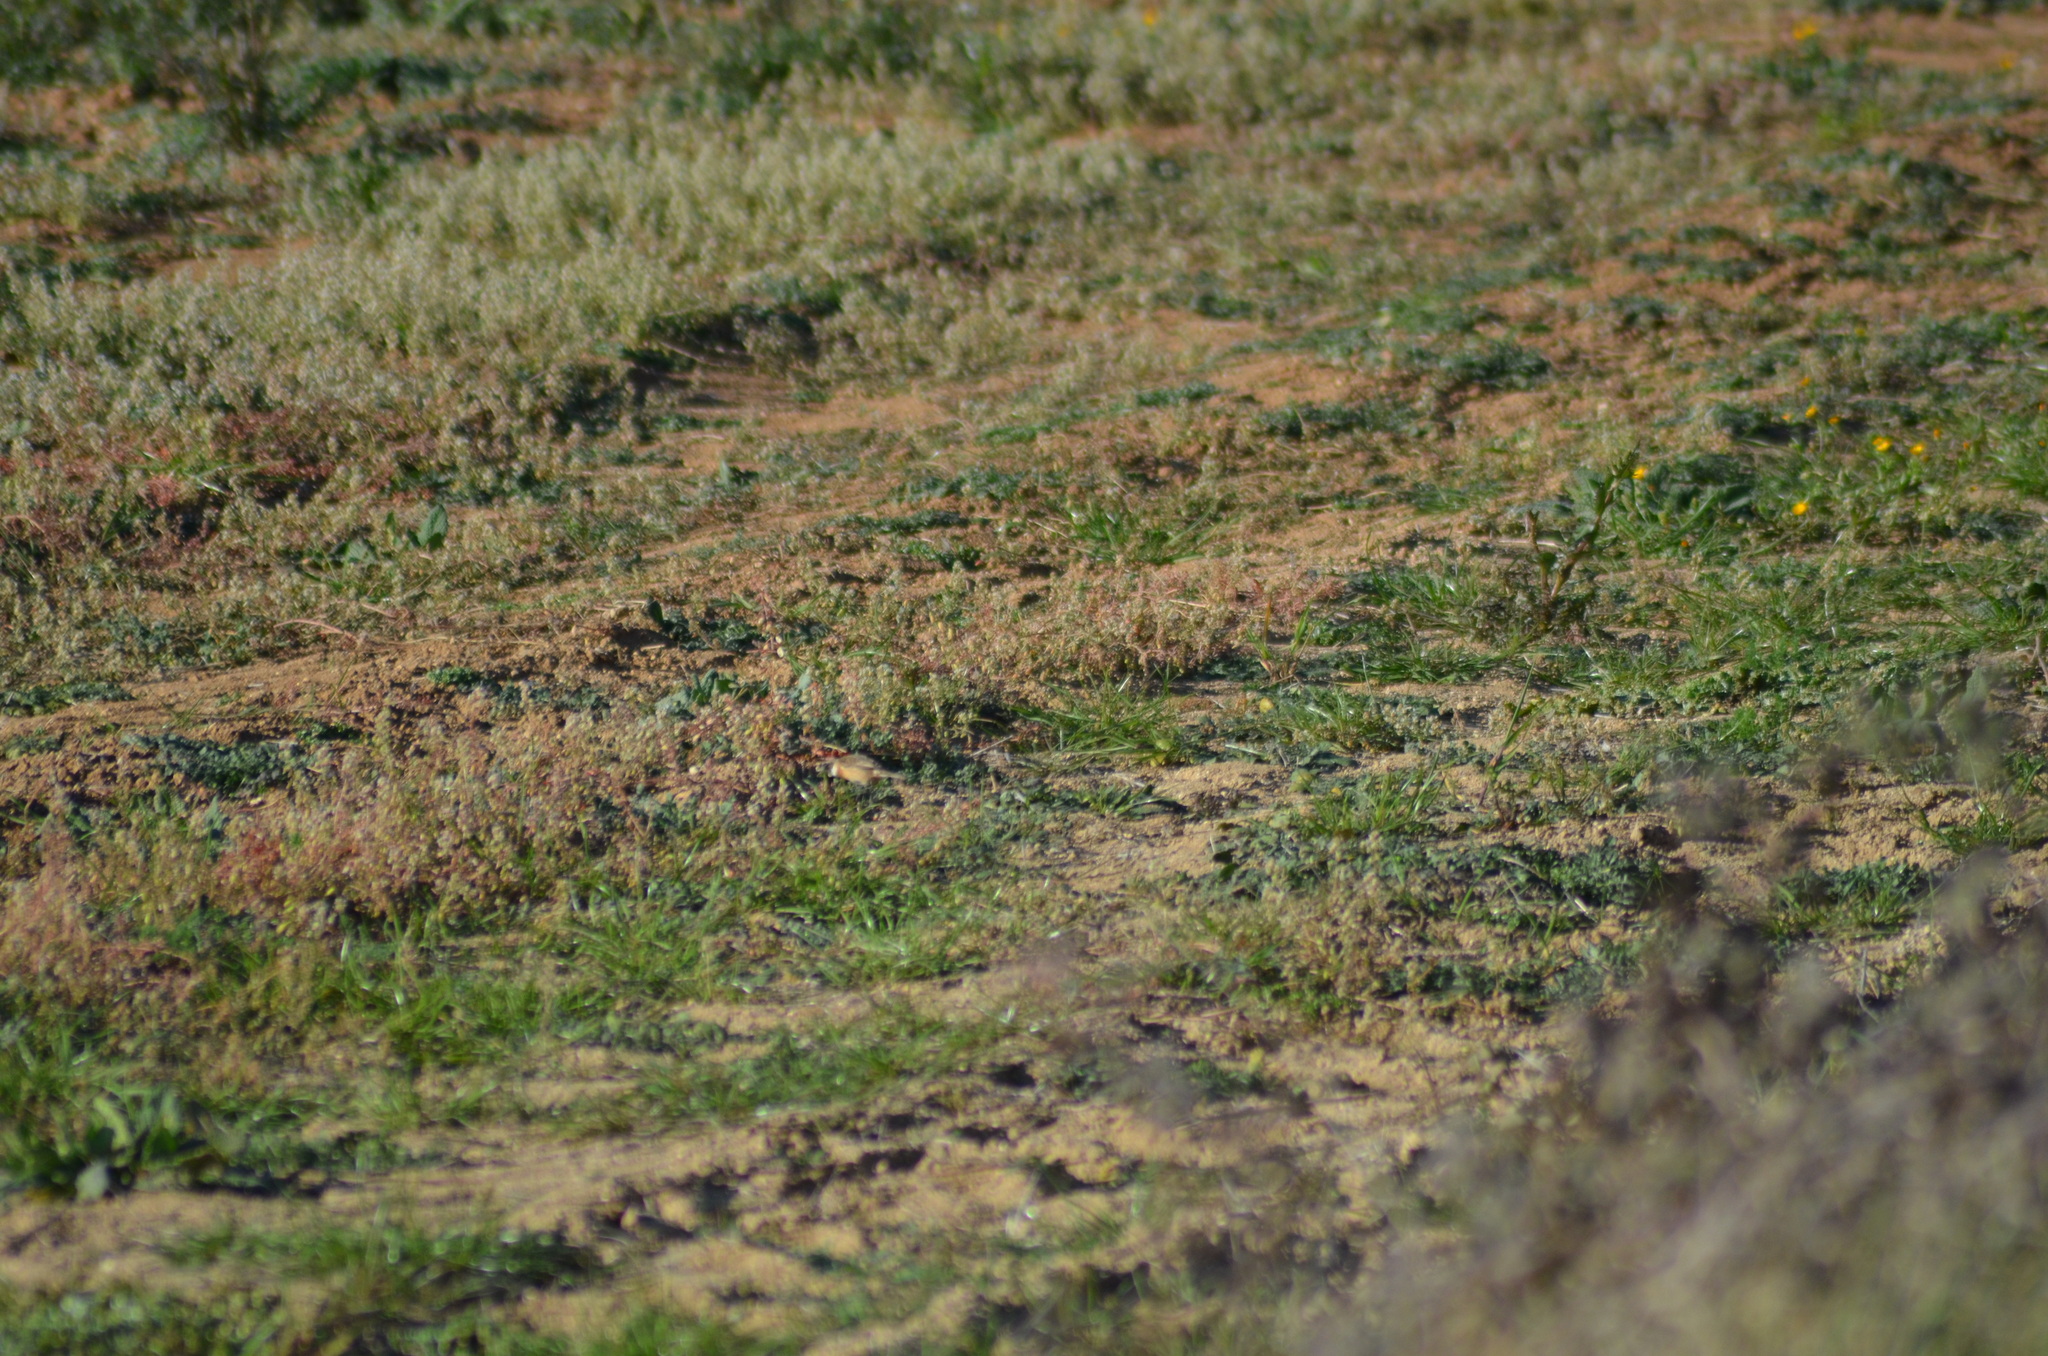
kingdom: Animalia
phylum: Chordata
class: Aves
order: Passeriformes
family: Muscicapidae
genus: Saxicola
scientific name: Saxicola rubicola
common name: European stonechat
